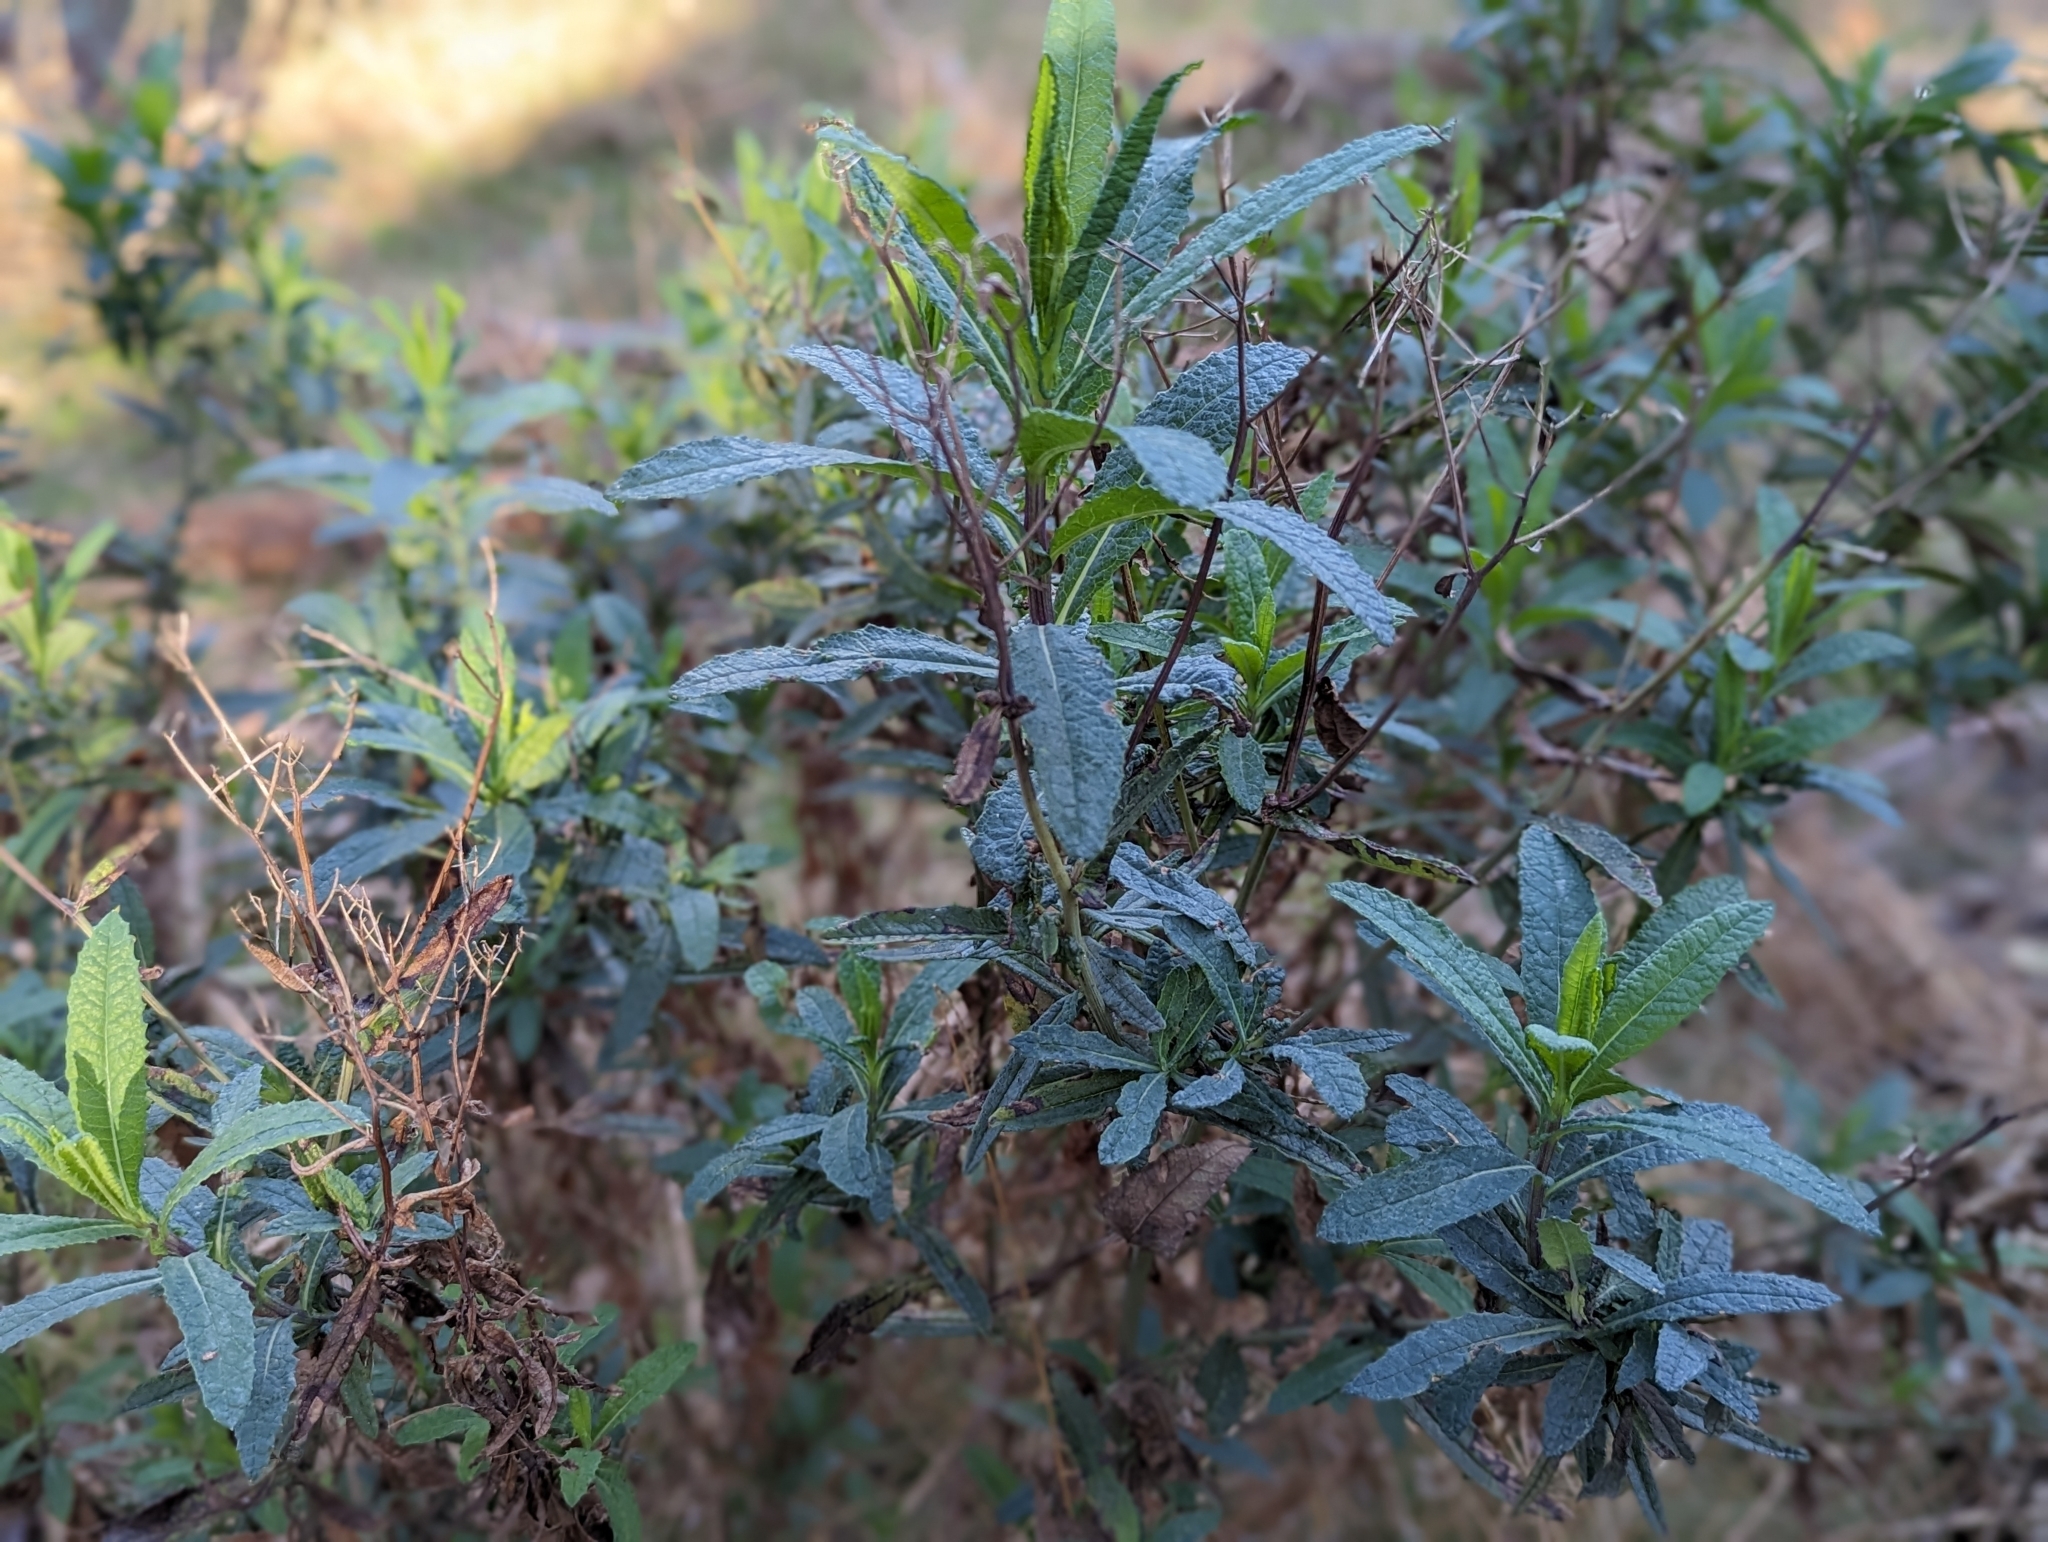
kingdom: Plantae
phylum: Tracheophyta
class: Magnoliopsida
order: Asterales
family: Asteraceae
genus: Senecio
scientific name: Senecio minimus
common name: Toothed fireweed
